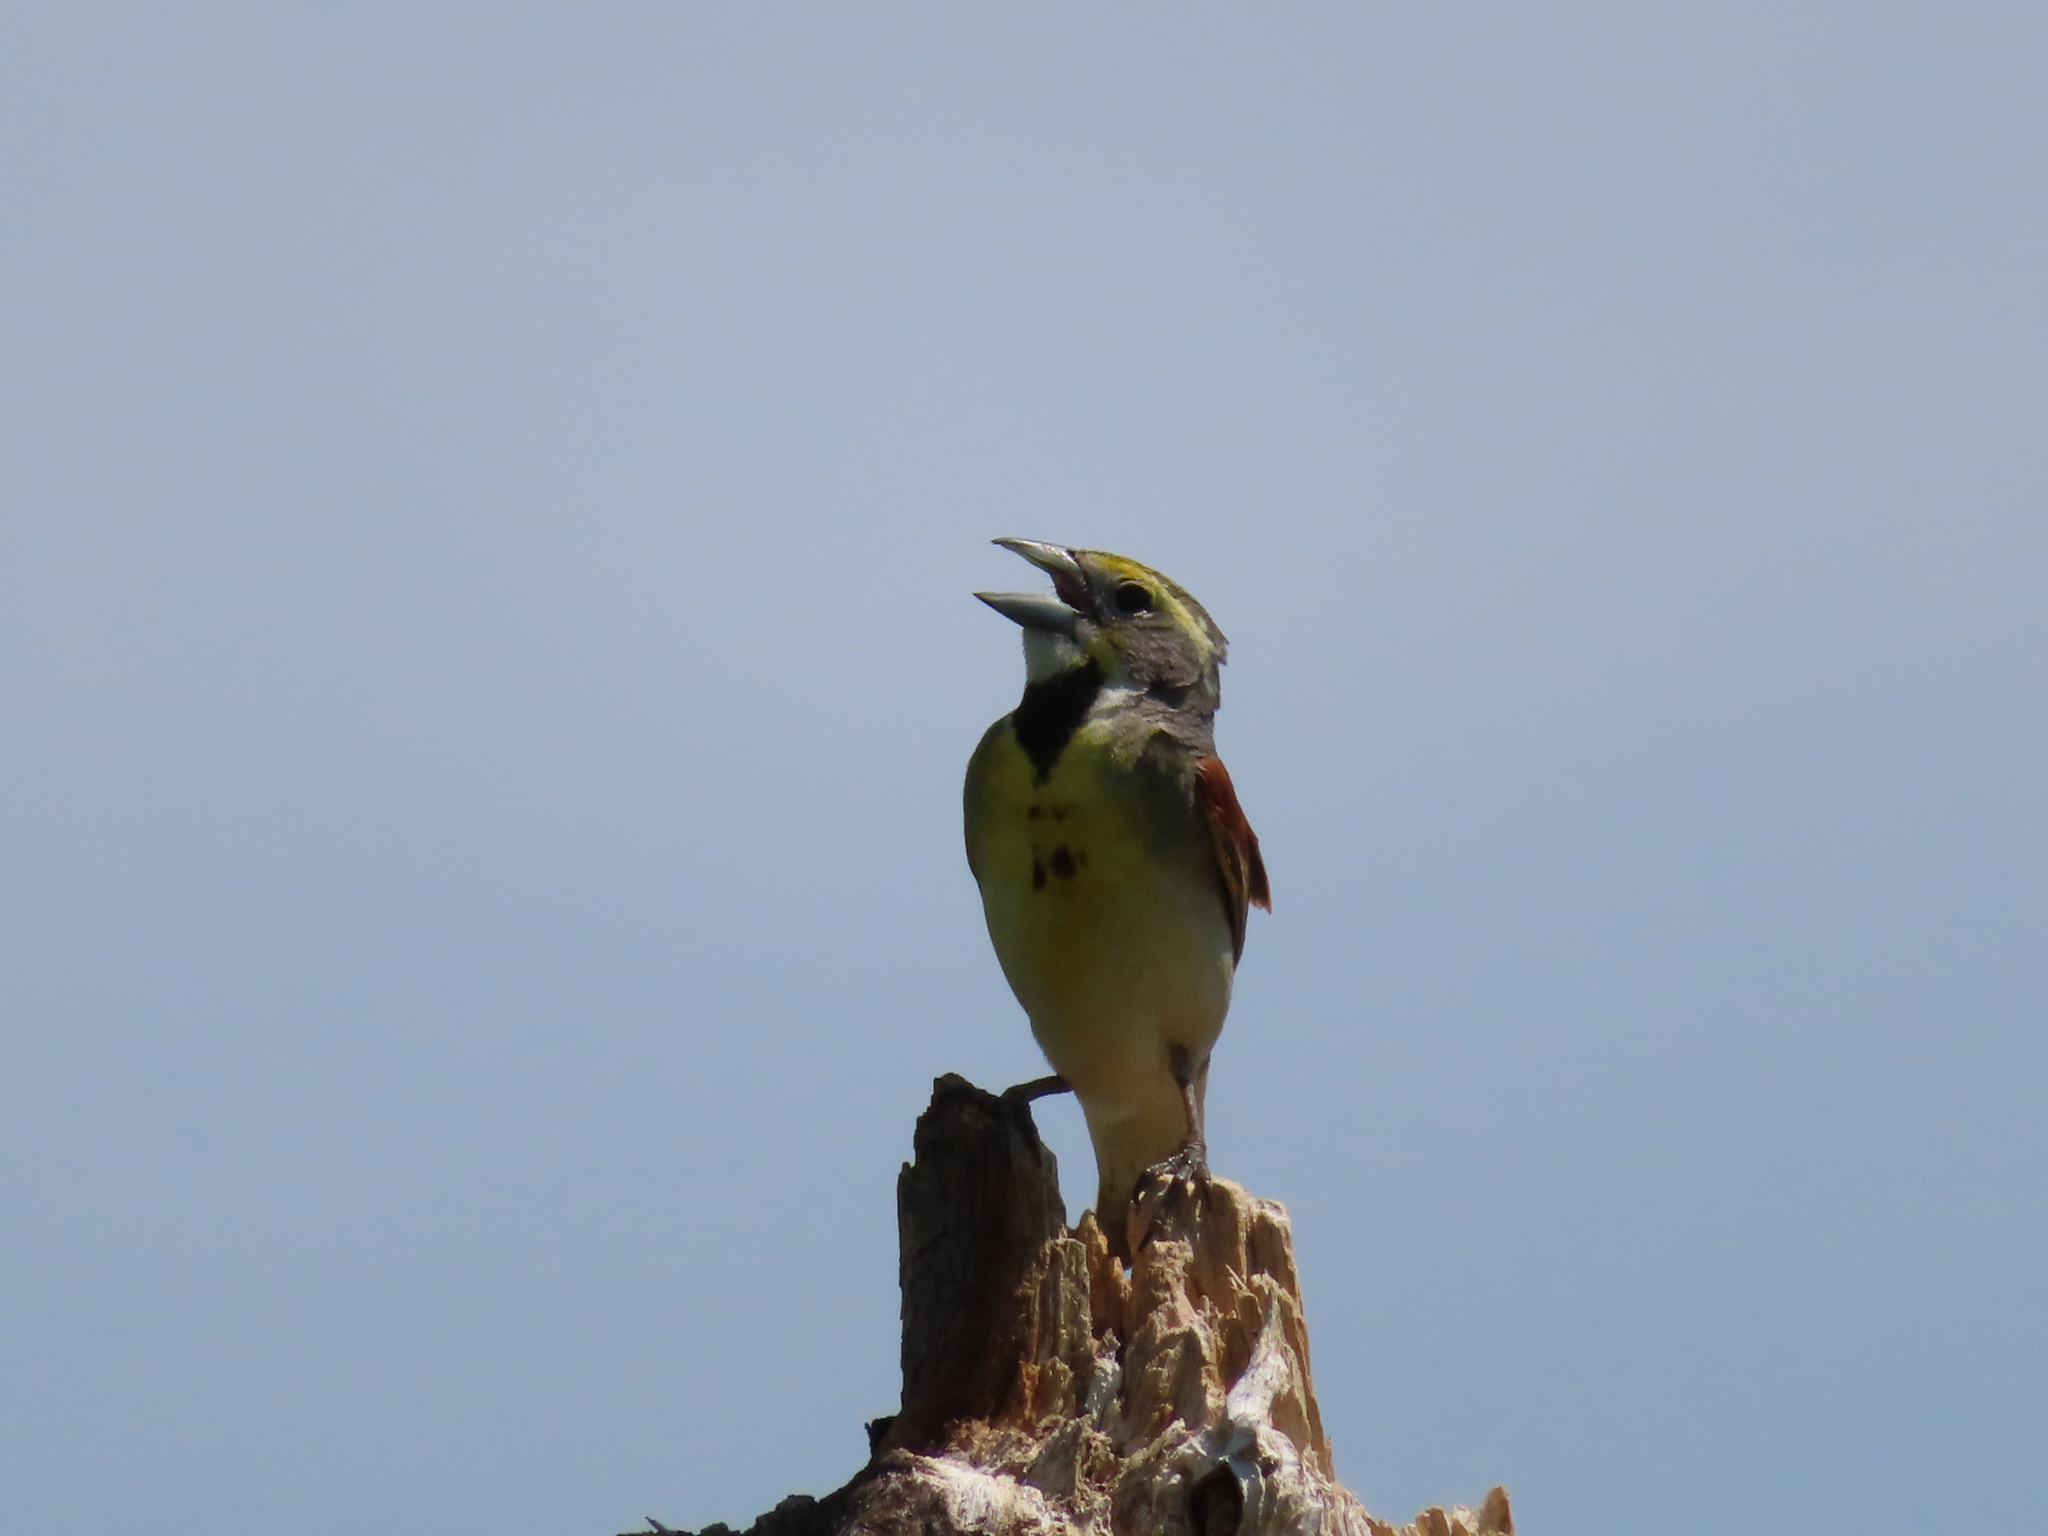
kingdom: Animalia
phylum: Chordata
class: Aves
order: Passeriformes
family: Cardinalidae
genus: Spiza
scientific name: Spiza americana
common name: Dickcissel
